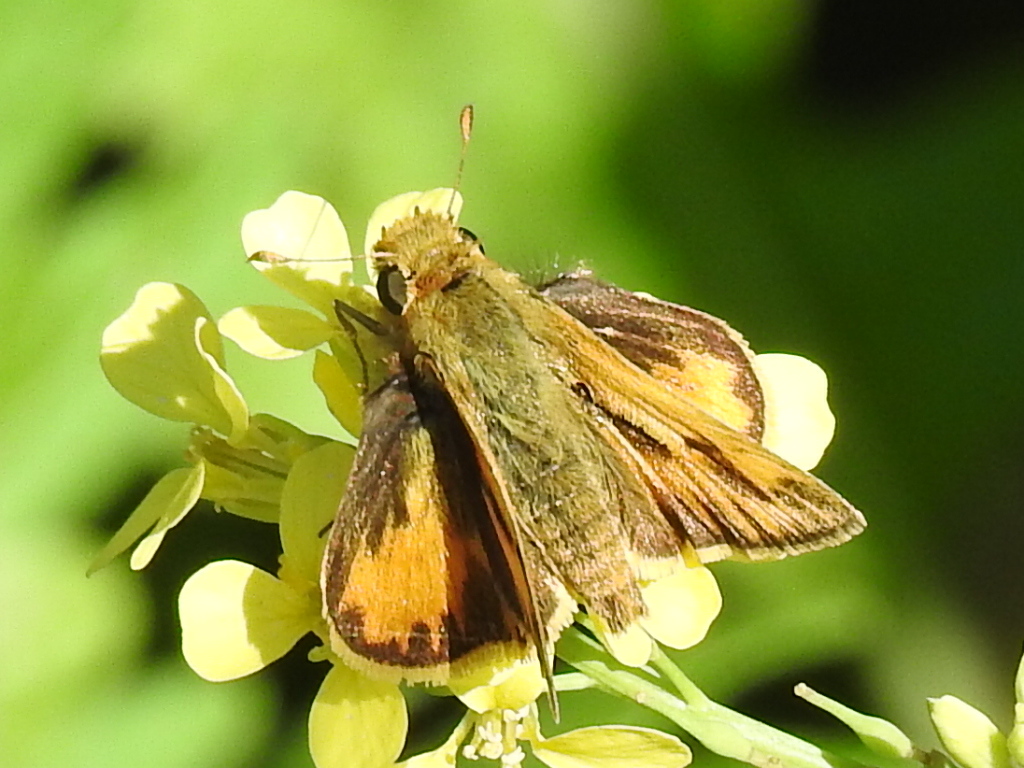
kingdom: Animalia
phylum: Arthropoda
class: Insecta
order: Lepidoptera
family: Hesperiidae
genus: Hylephila
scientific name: Hylephila phyleus
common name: Fiery skipper
